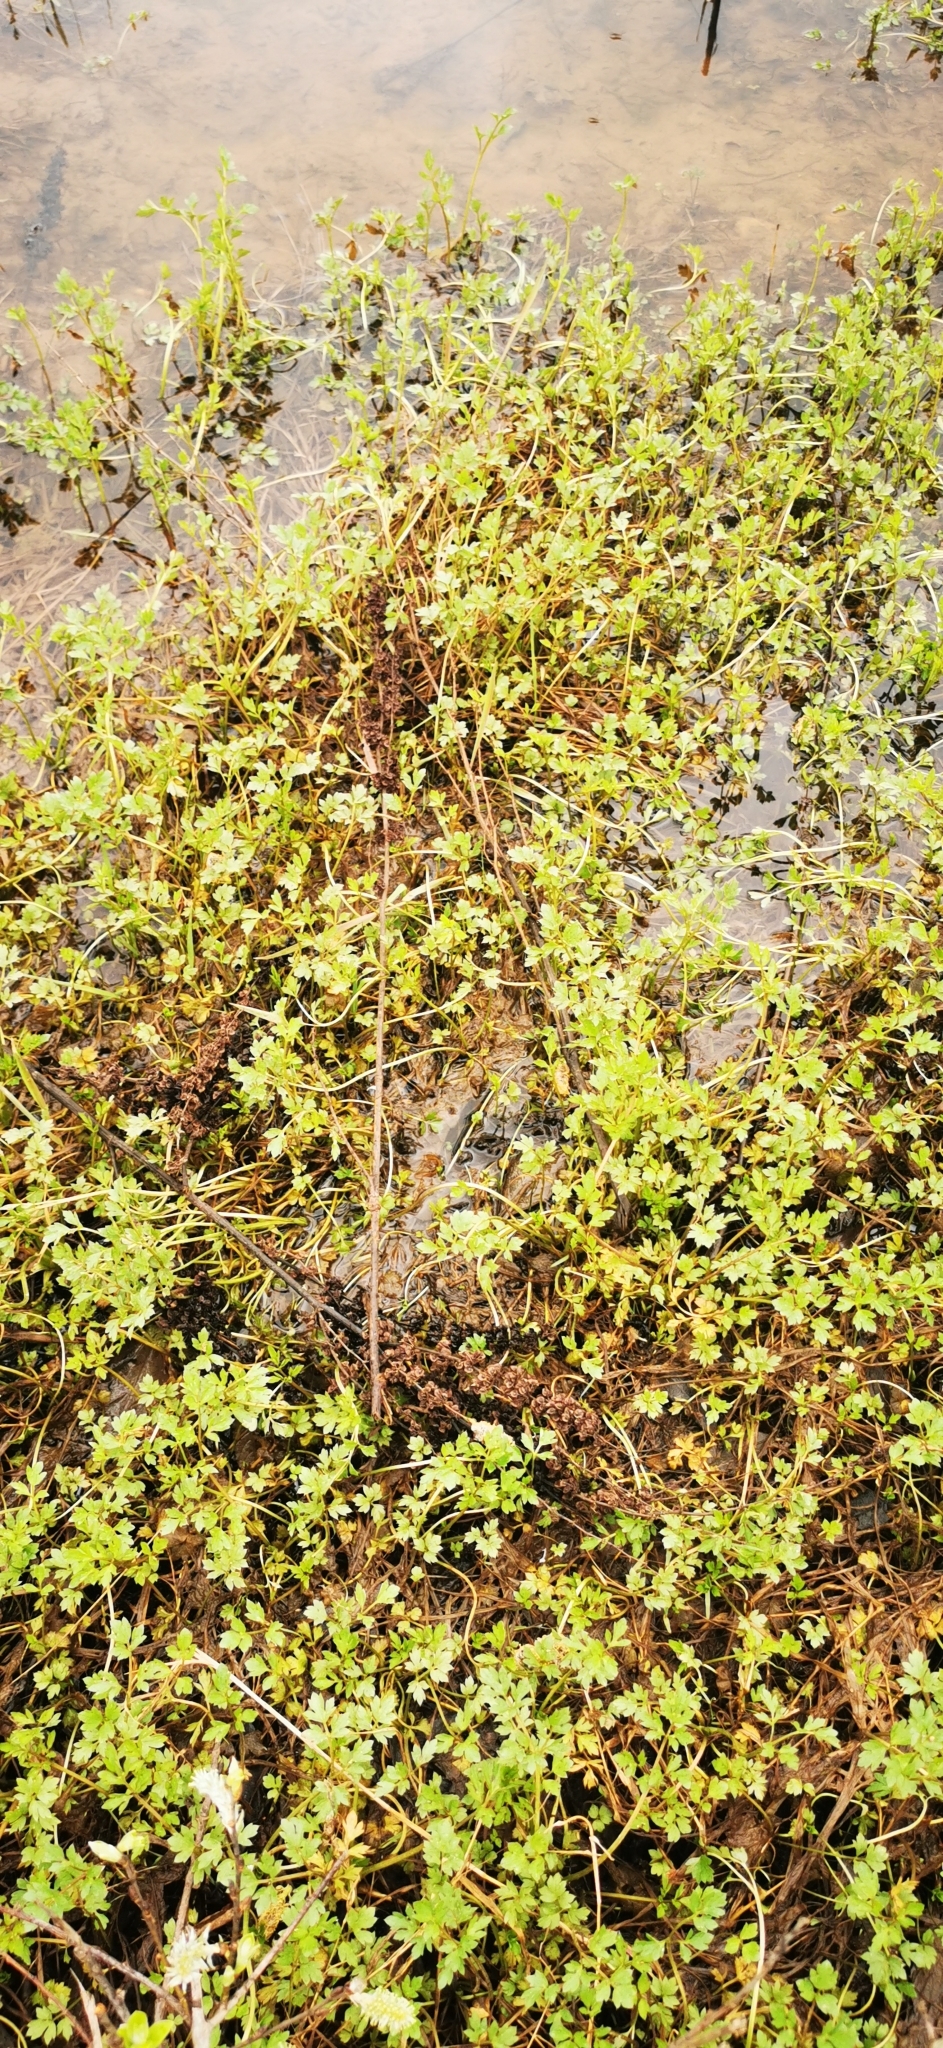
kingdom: Plantae
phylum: Tracheophyta
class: Magnoliopsida
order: Ranunculales
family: Ranunculaceae
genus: Ranunculus
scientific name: Ranunculus repens
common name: Creeping buttercup
